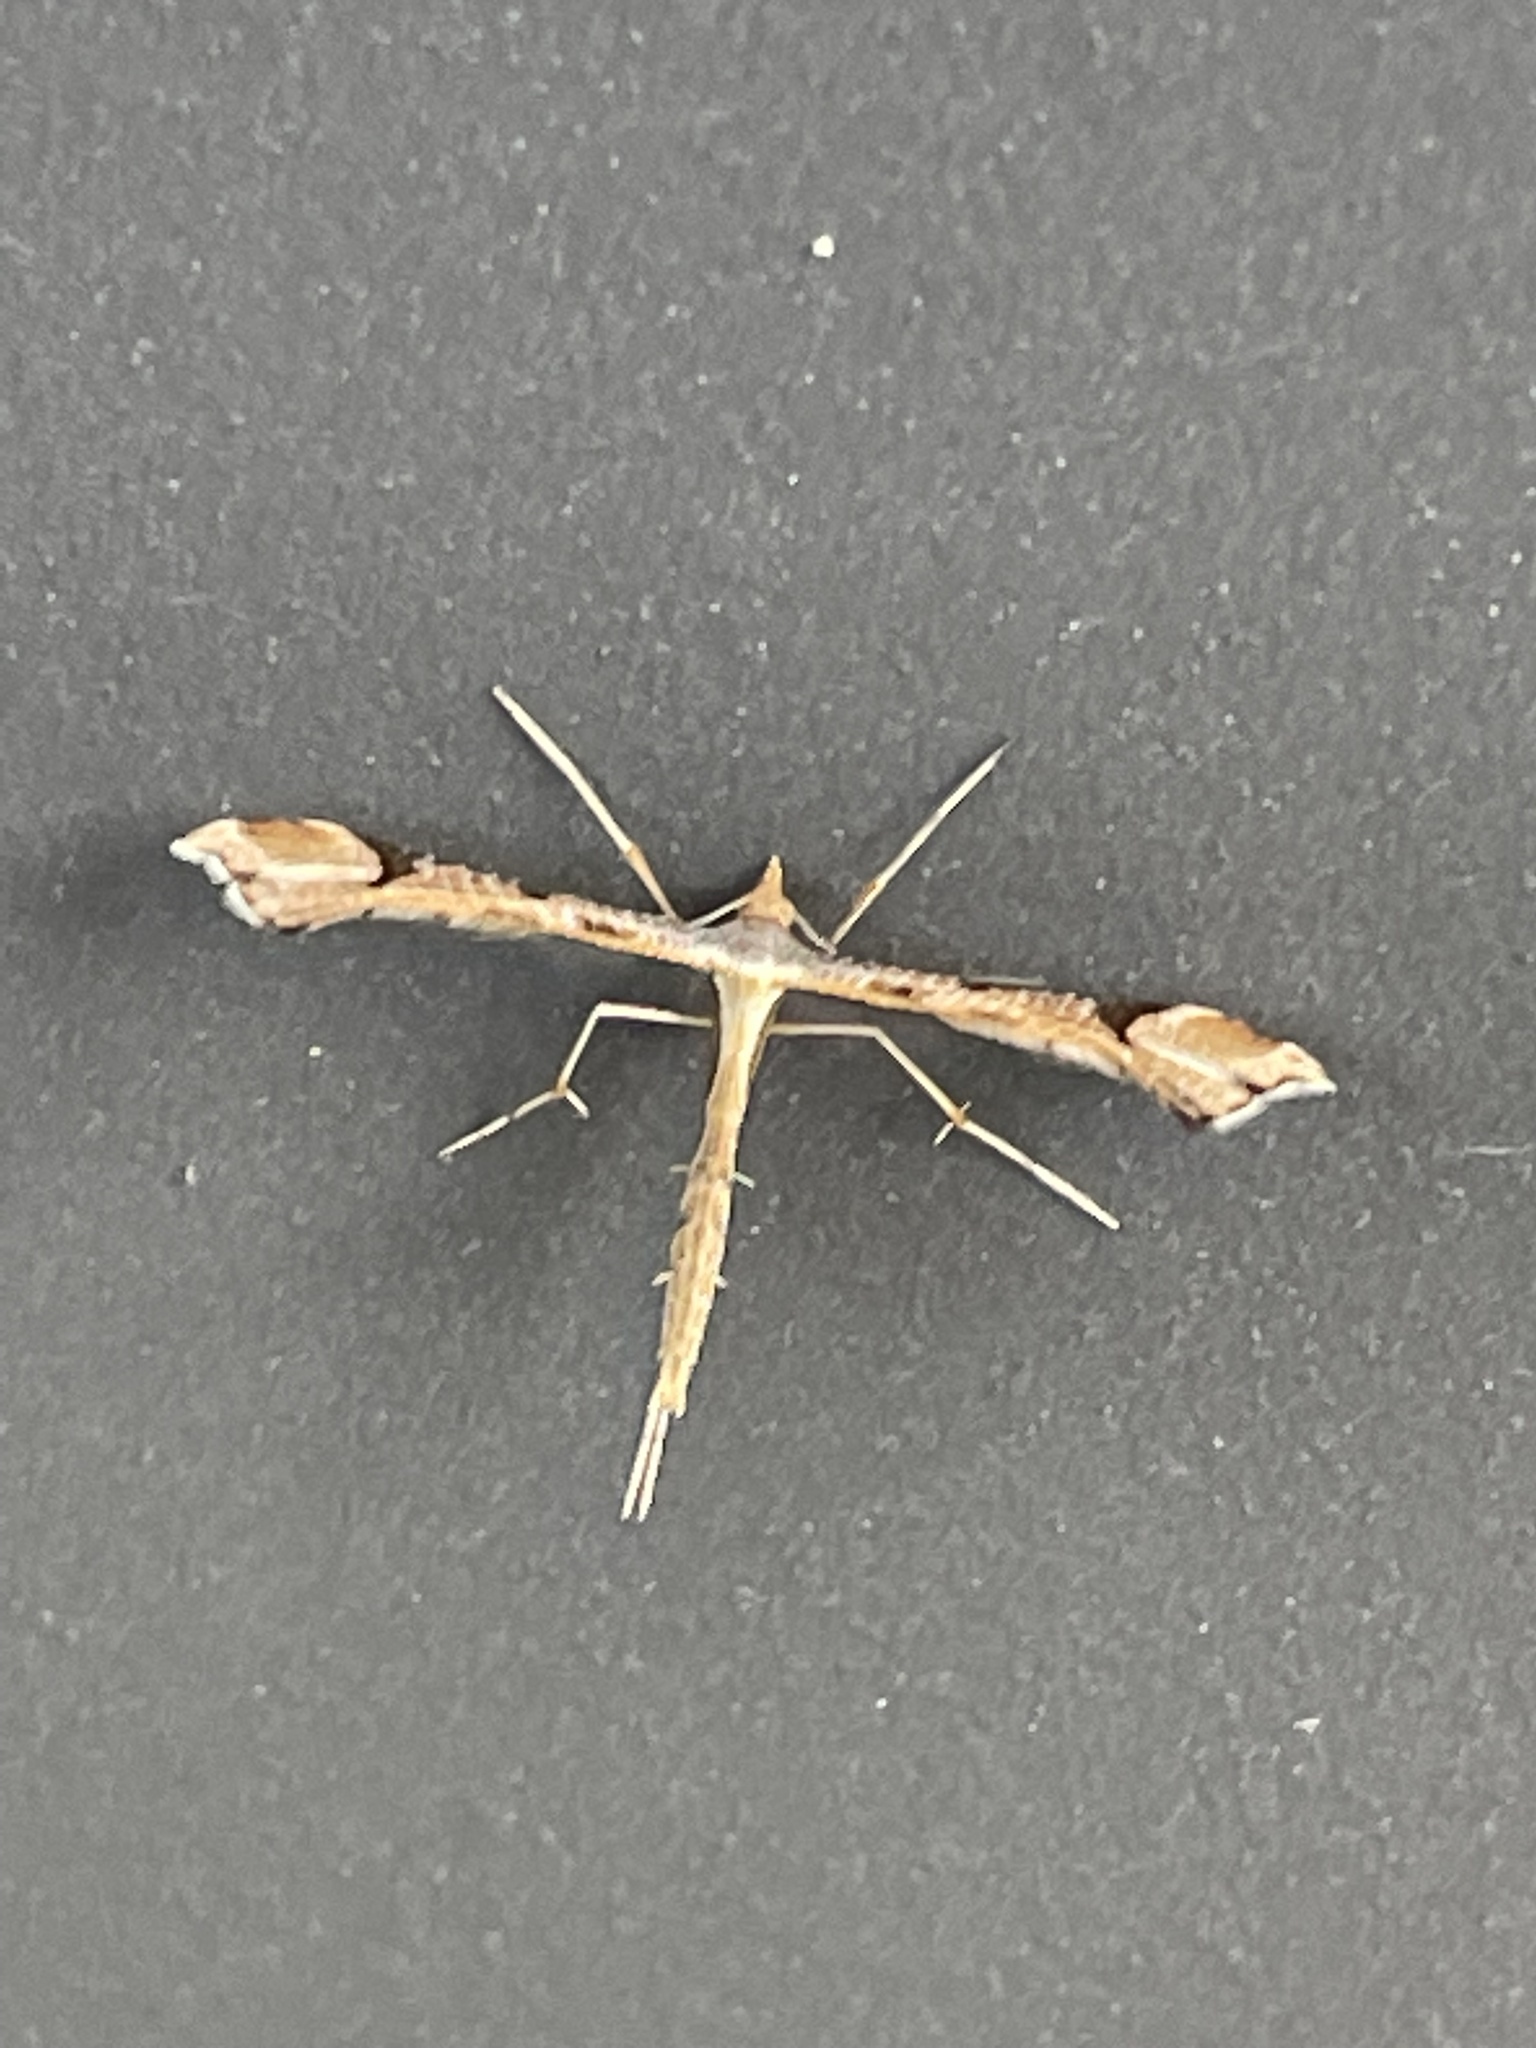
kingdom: Animalia
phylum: Arthropoda
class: Insecta
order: Lepidoptera
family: Pterophoridae
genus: Sinpunctiptilia
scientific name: Sinpunctiptilia emissalis
